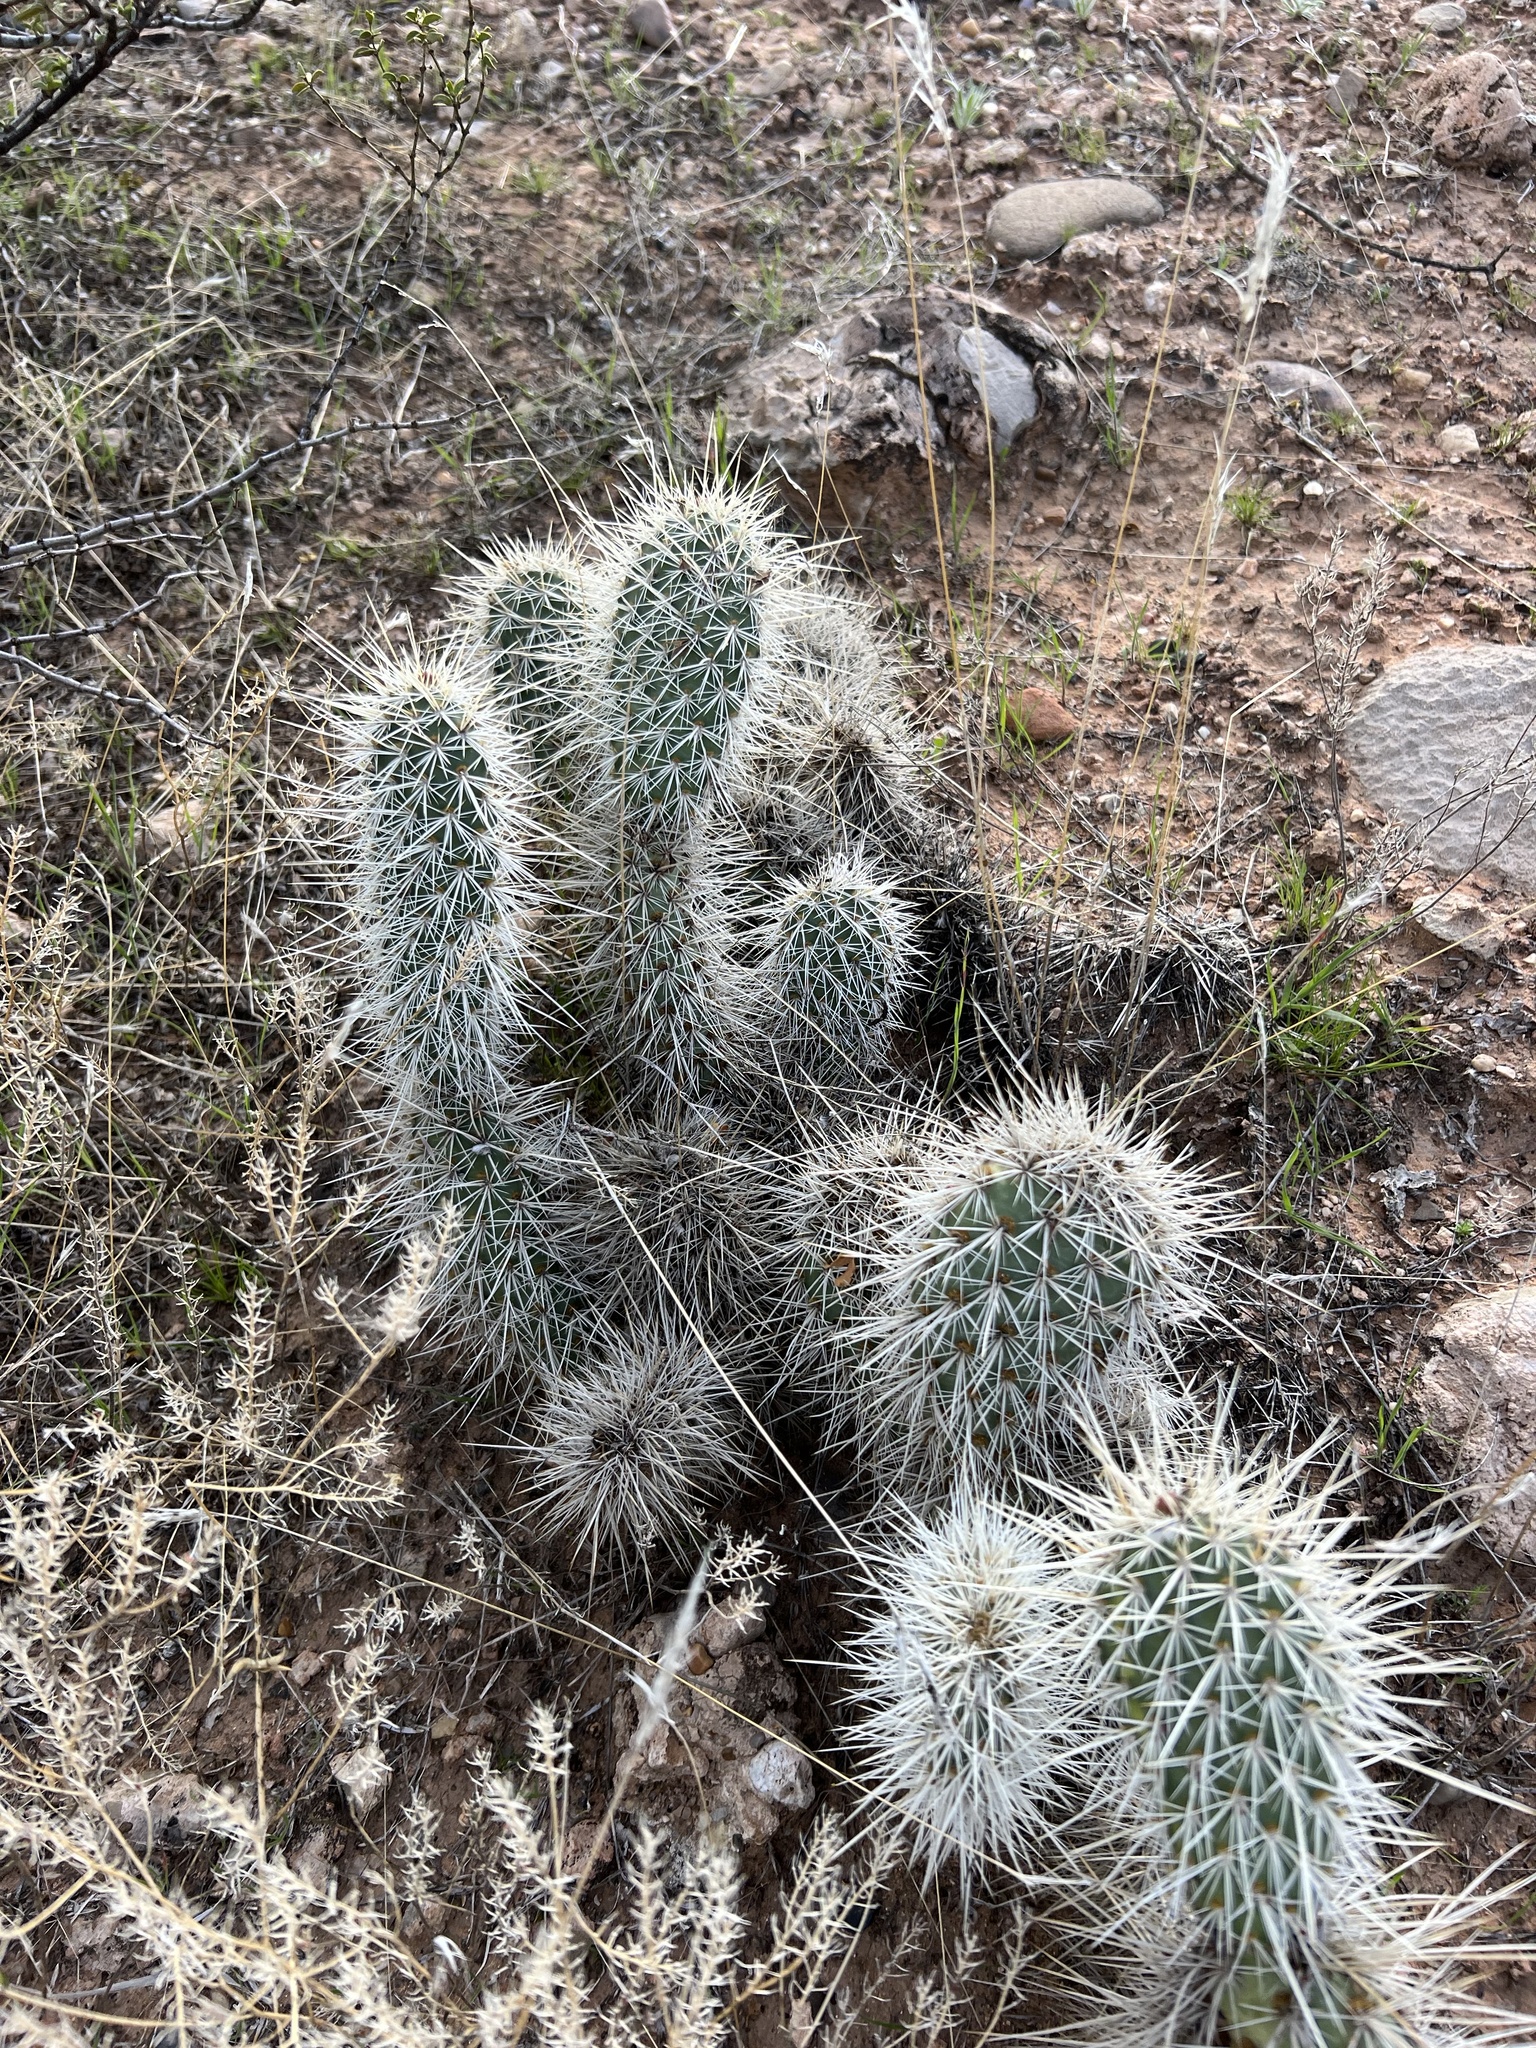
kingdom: Plantae
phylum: Tracheophyta
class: Magnoliopsida
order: Caryophyllales
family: Cactaceae
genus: Opuntia
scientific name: Opuntia polyacantha
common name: Plains prickly-pear
